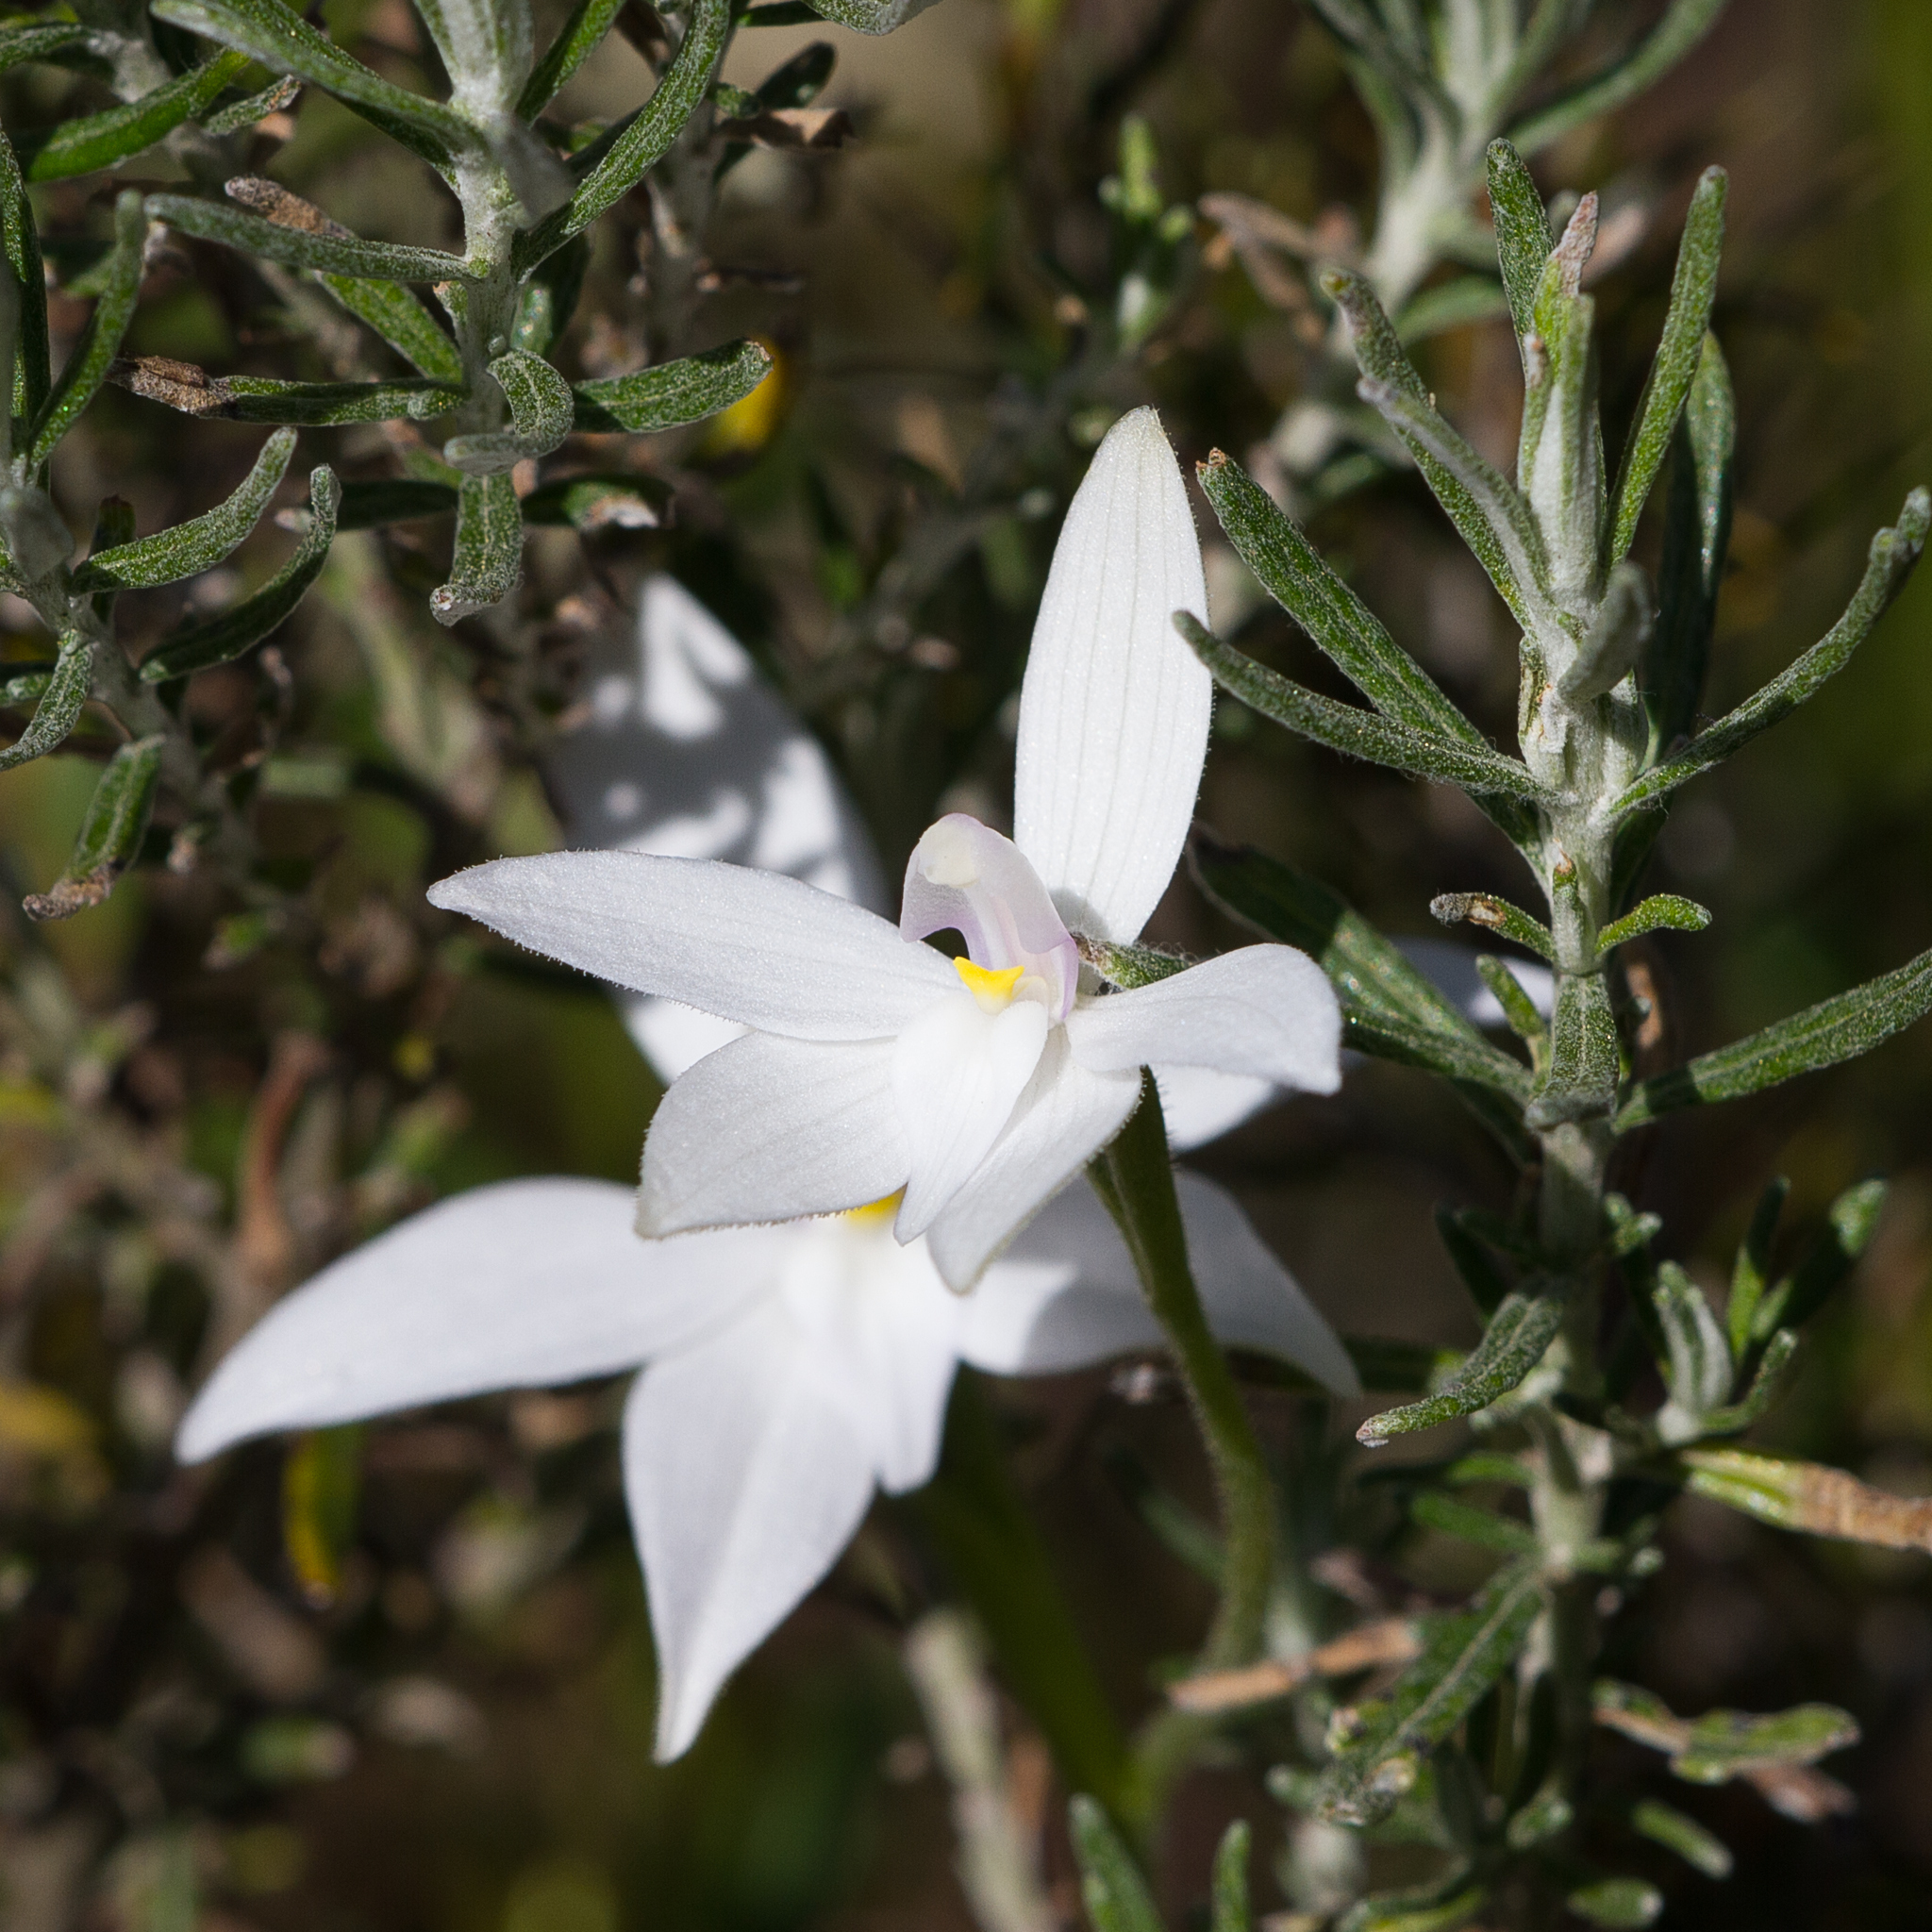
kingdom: Plantae
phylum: Tracheophyta
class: Liliopsida
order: Asparagales
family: Orchidaceae
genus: Caladenia
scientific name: Caladenia major
